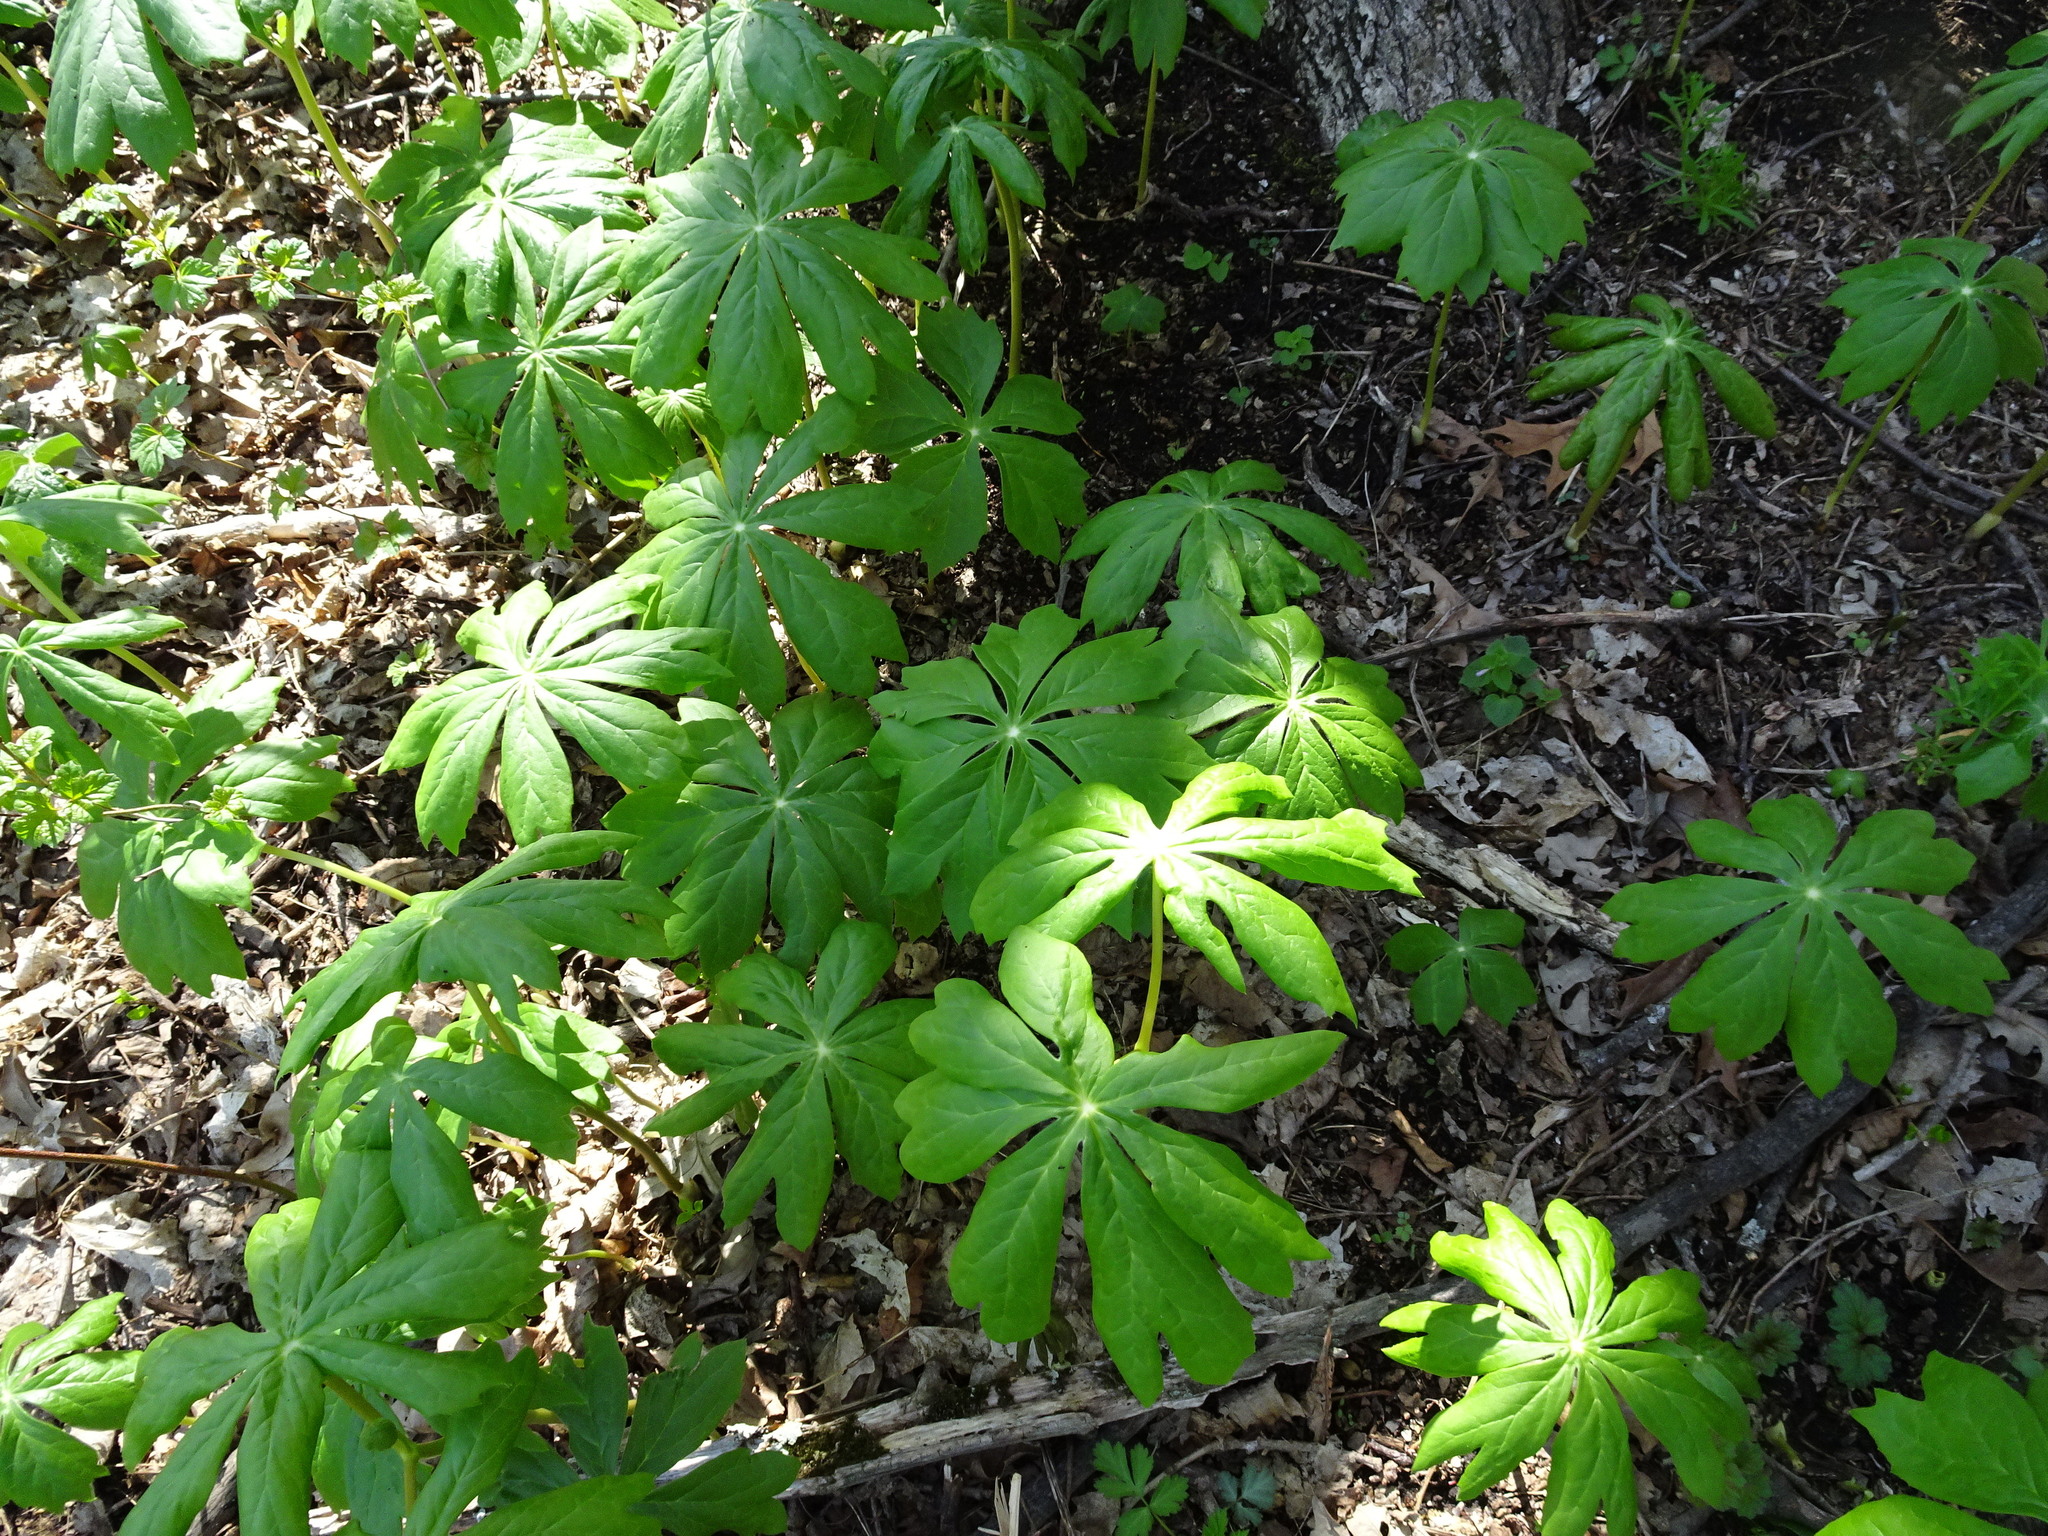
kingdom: Plantae
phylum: Tracheophyta
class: Magnoliopsida
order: Ranunculales
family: Berberidaceae
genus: Podophyllum
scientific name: Podophyllum peltatum
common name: Wild mandrake
